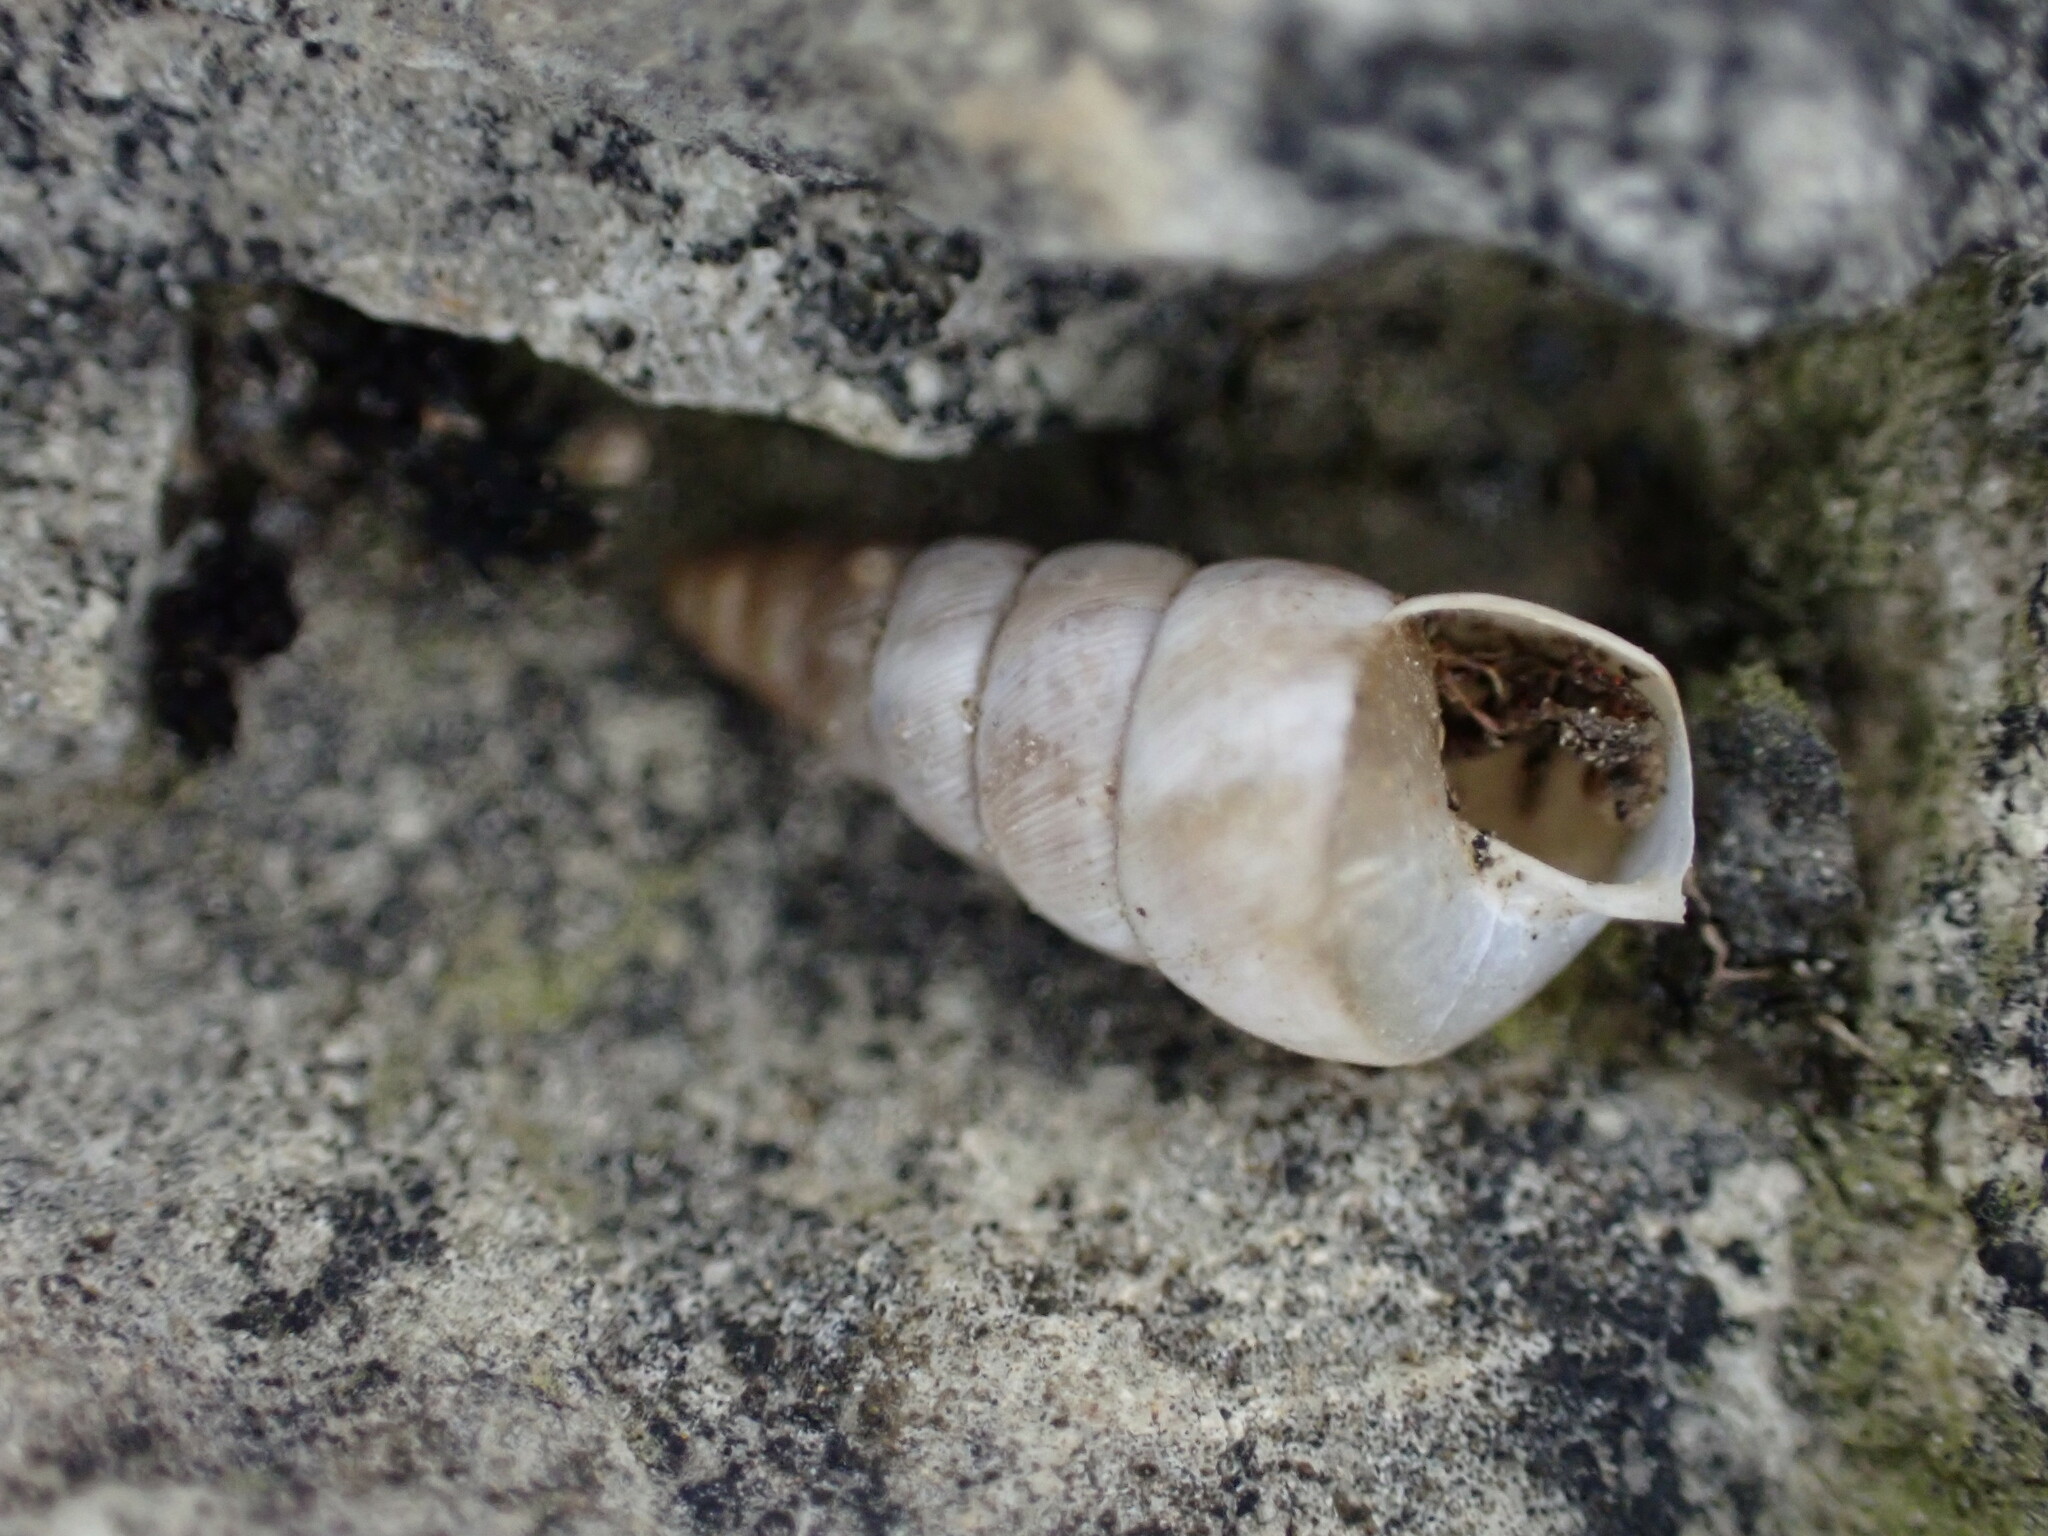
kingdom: Animalia
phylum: Mollusca
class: Gastropoda
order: Stylommatophora
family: Chondrinidae
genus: Solatopupa
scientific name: Solatopupa similis
